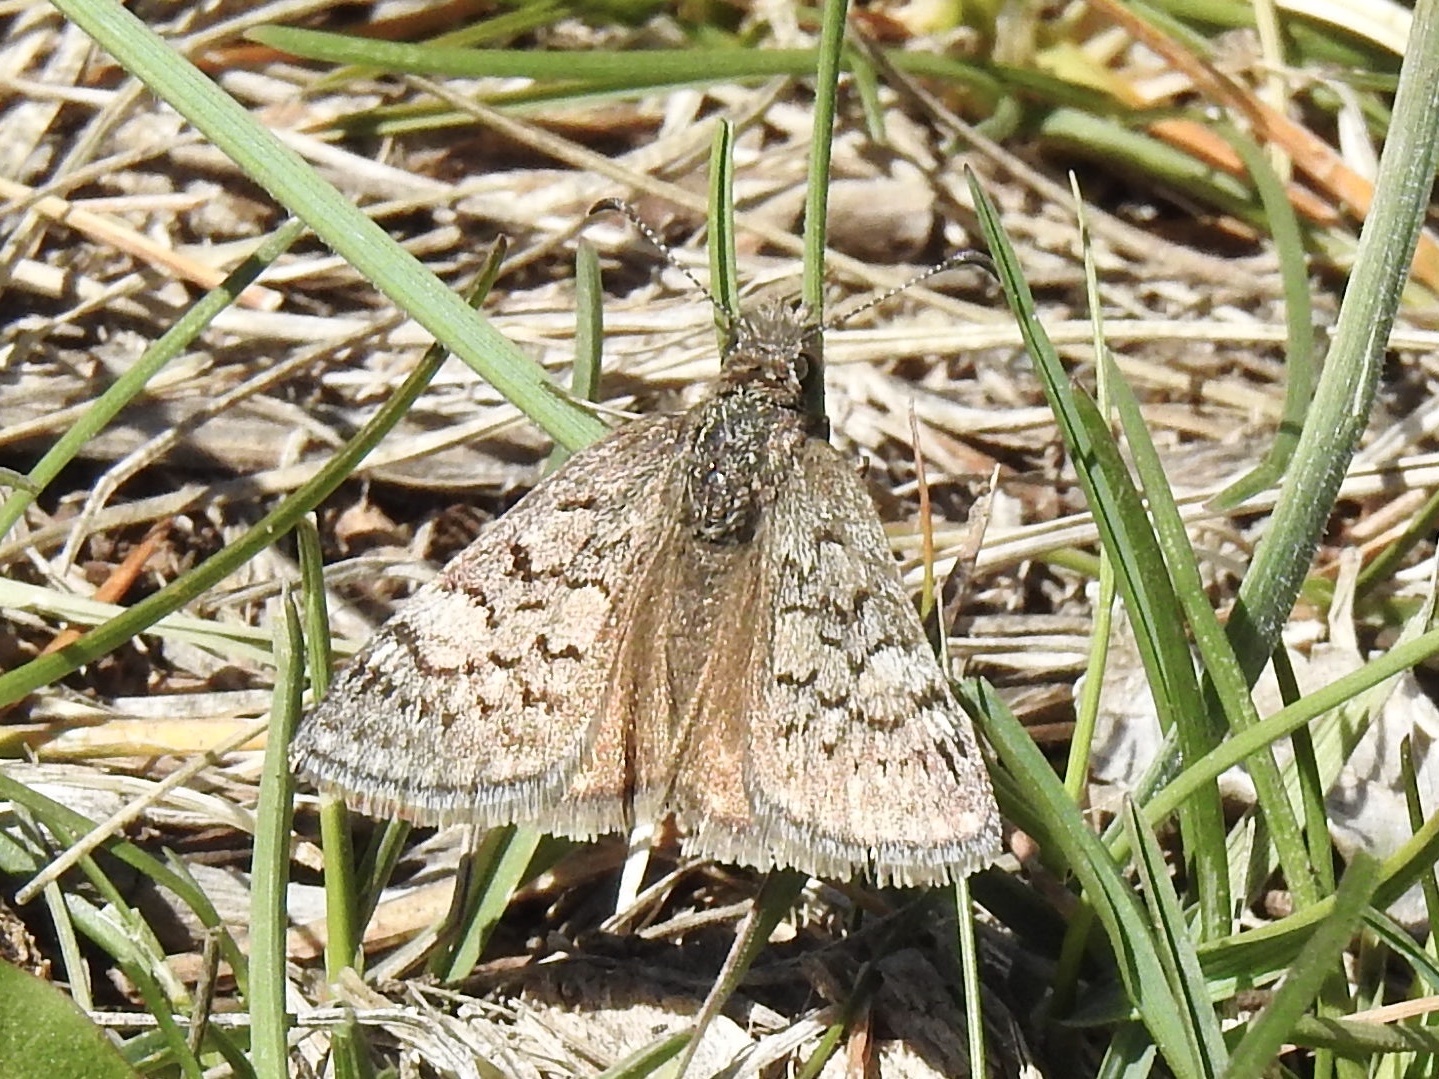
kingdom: Animalia
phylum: Arthropoda
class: Insecta
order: Lepidoptera
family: Hesperiidae
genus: Erynnis
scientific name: Erynnis brizo
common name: Sleepy duskywing
